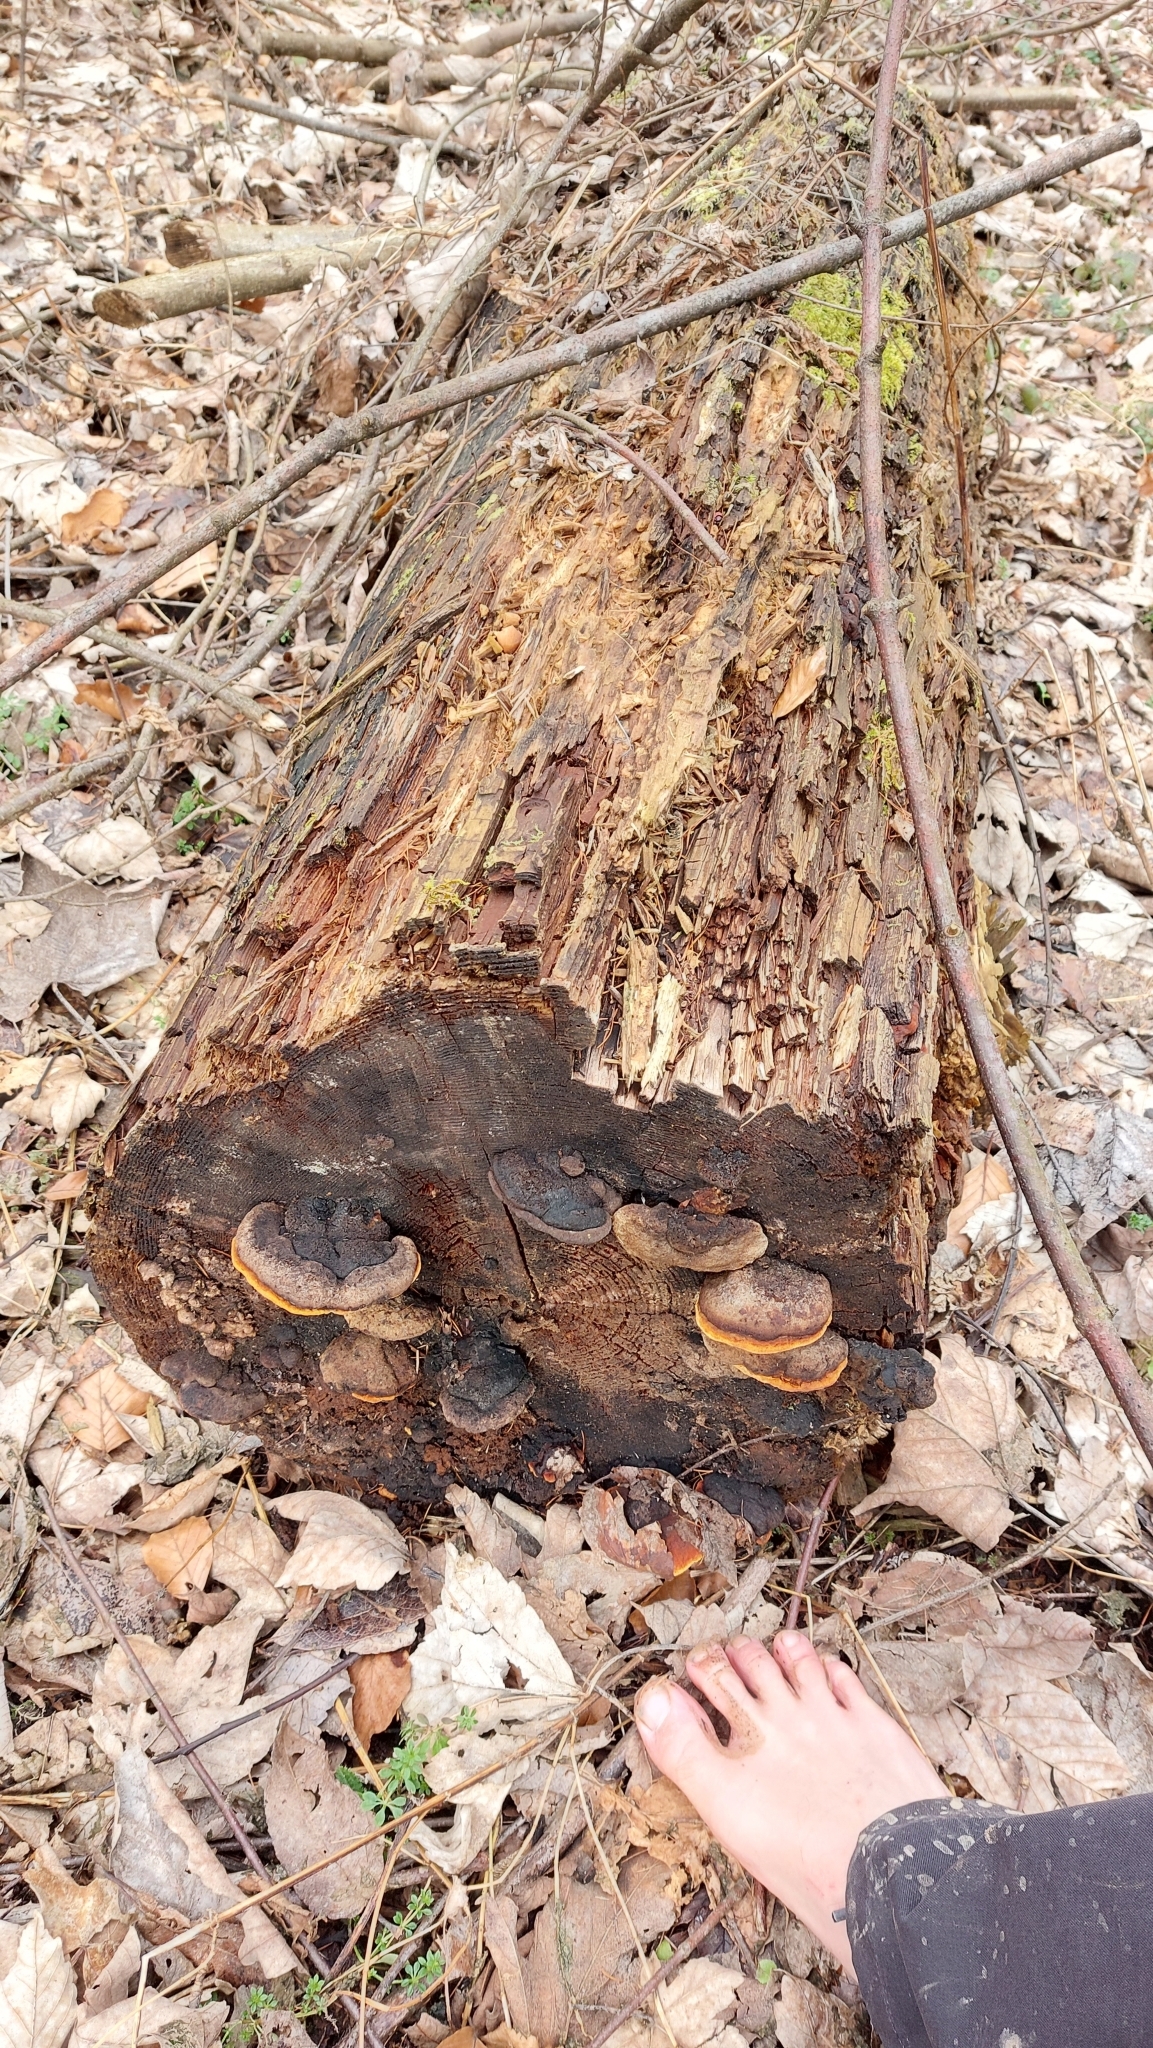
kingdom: Fungi
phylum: Basidiomycota
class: Agaricomycetes
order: Gloeophyllales
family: Gloeophyllaceae
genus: Gloeophyllum
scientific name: Gloeophyllum odoratum
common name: Anise mazegill
